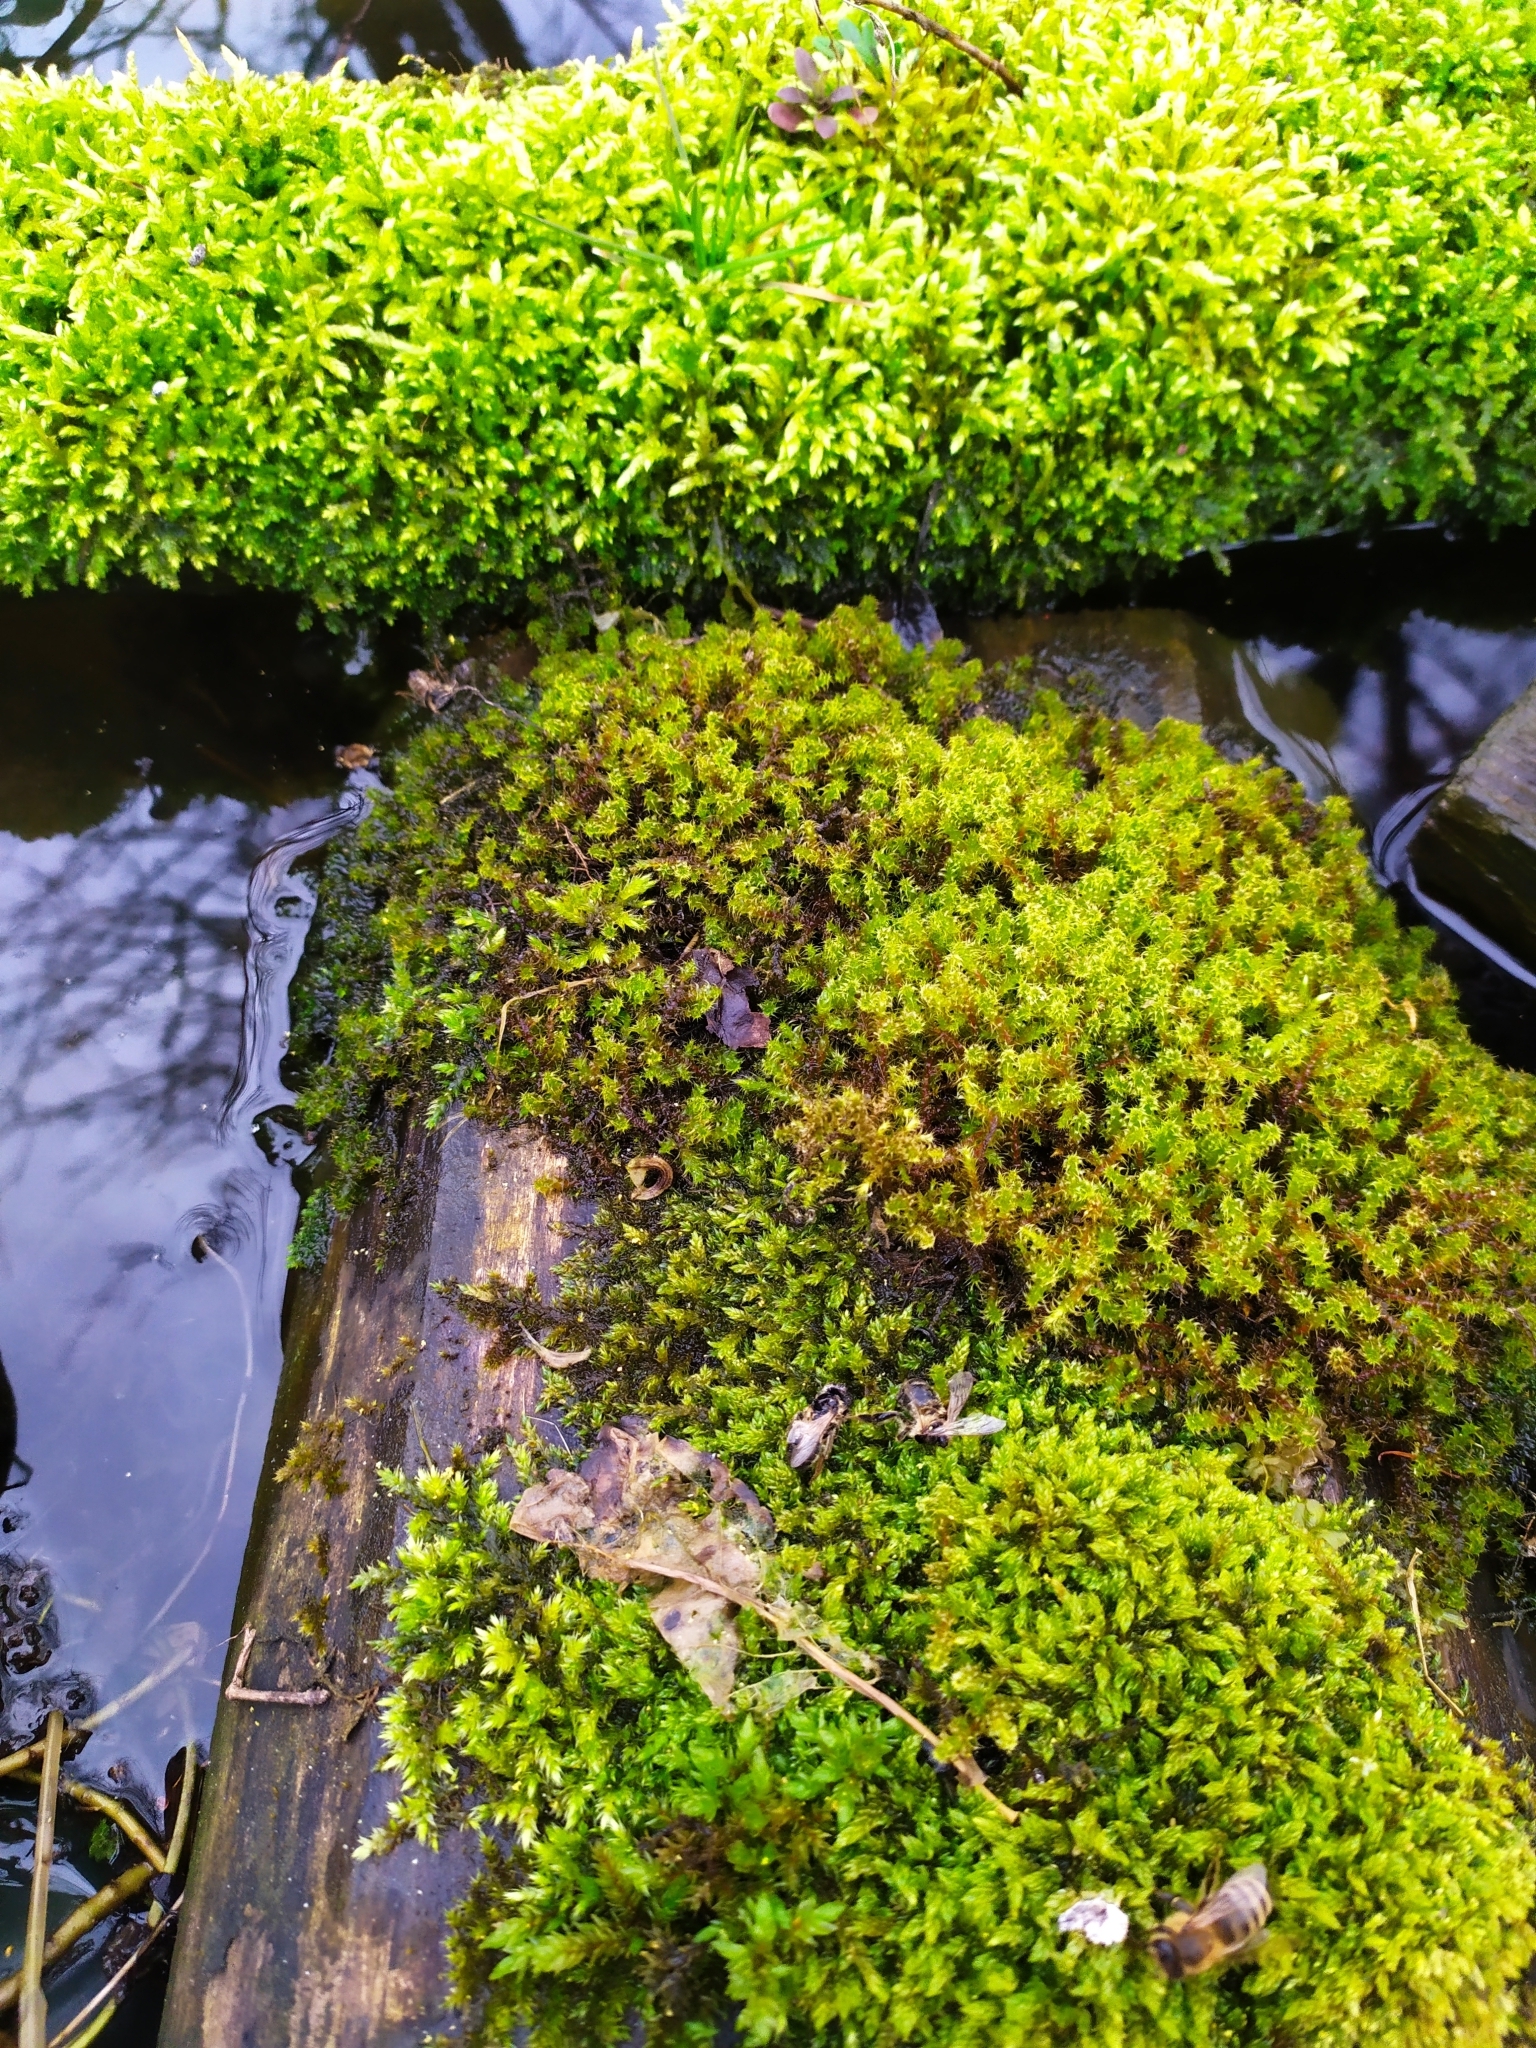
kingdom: Plantae
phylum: Bryophyta
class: Bryopsida
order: Hypnales
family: Hylocomiaceae
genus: Rhytidiadelphus
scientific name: Rhytidiadelphus squarrosus
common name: Springy turf-moss
